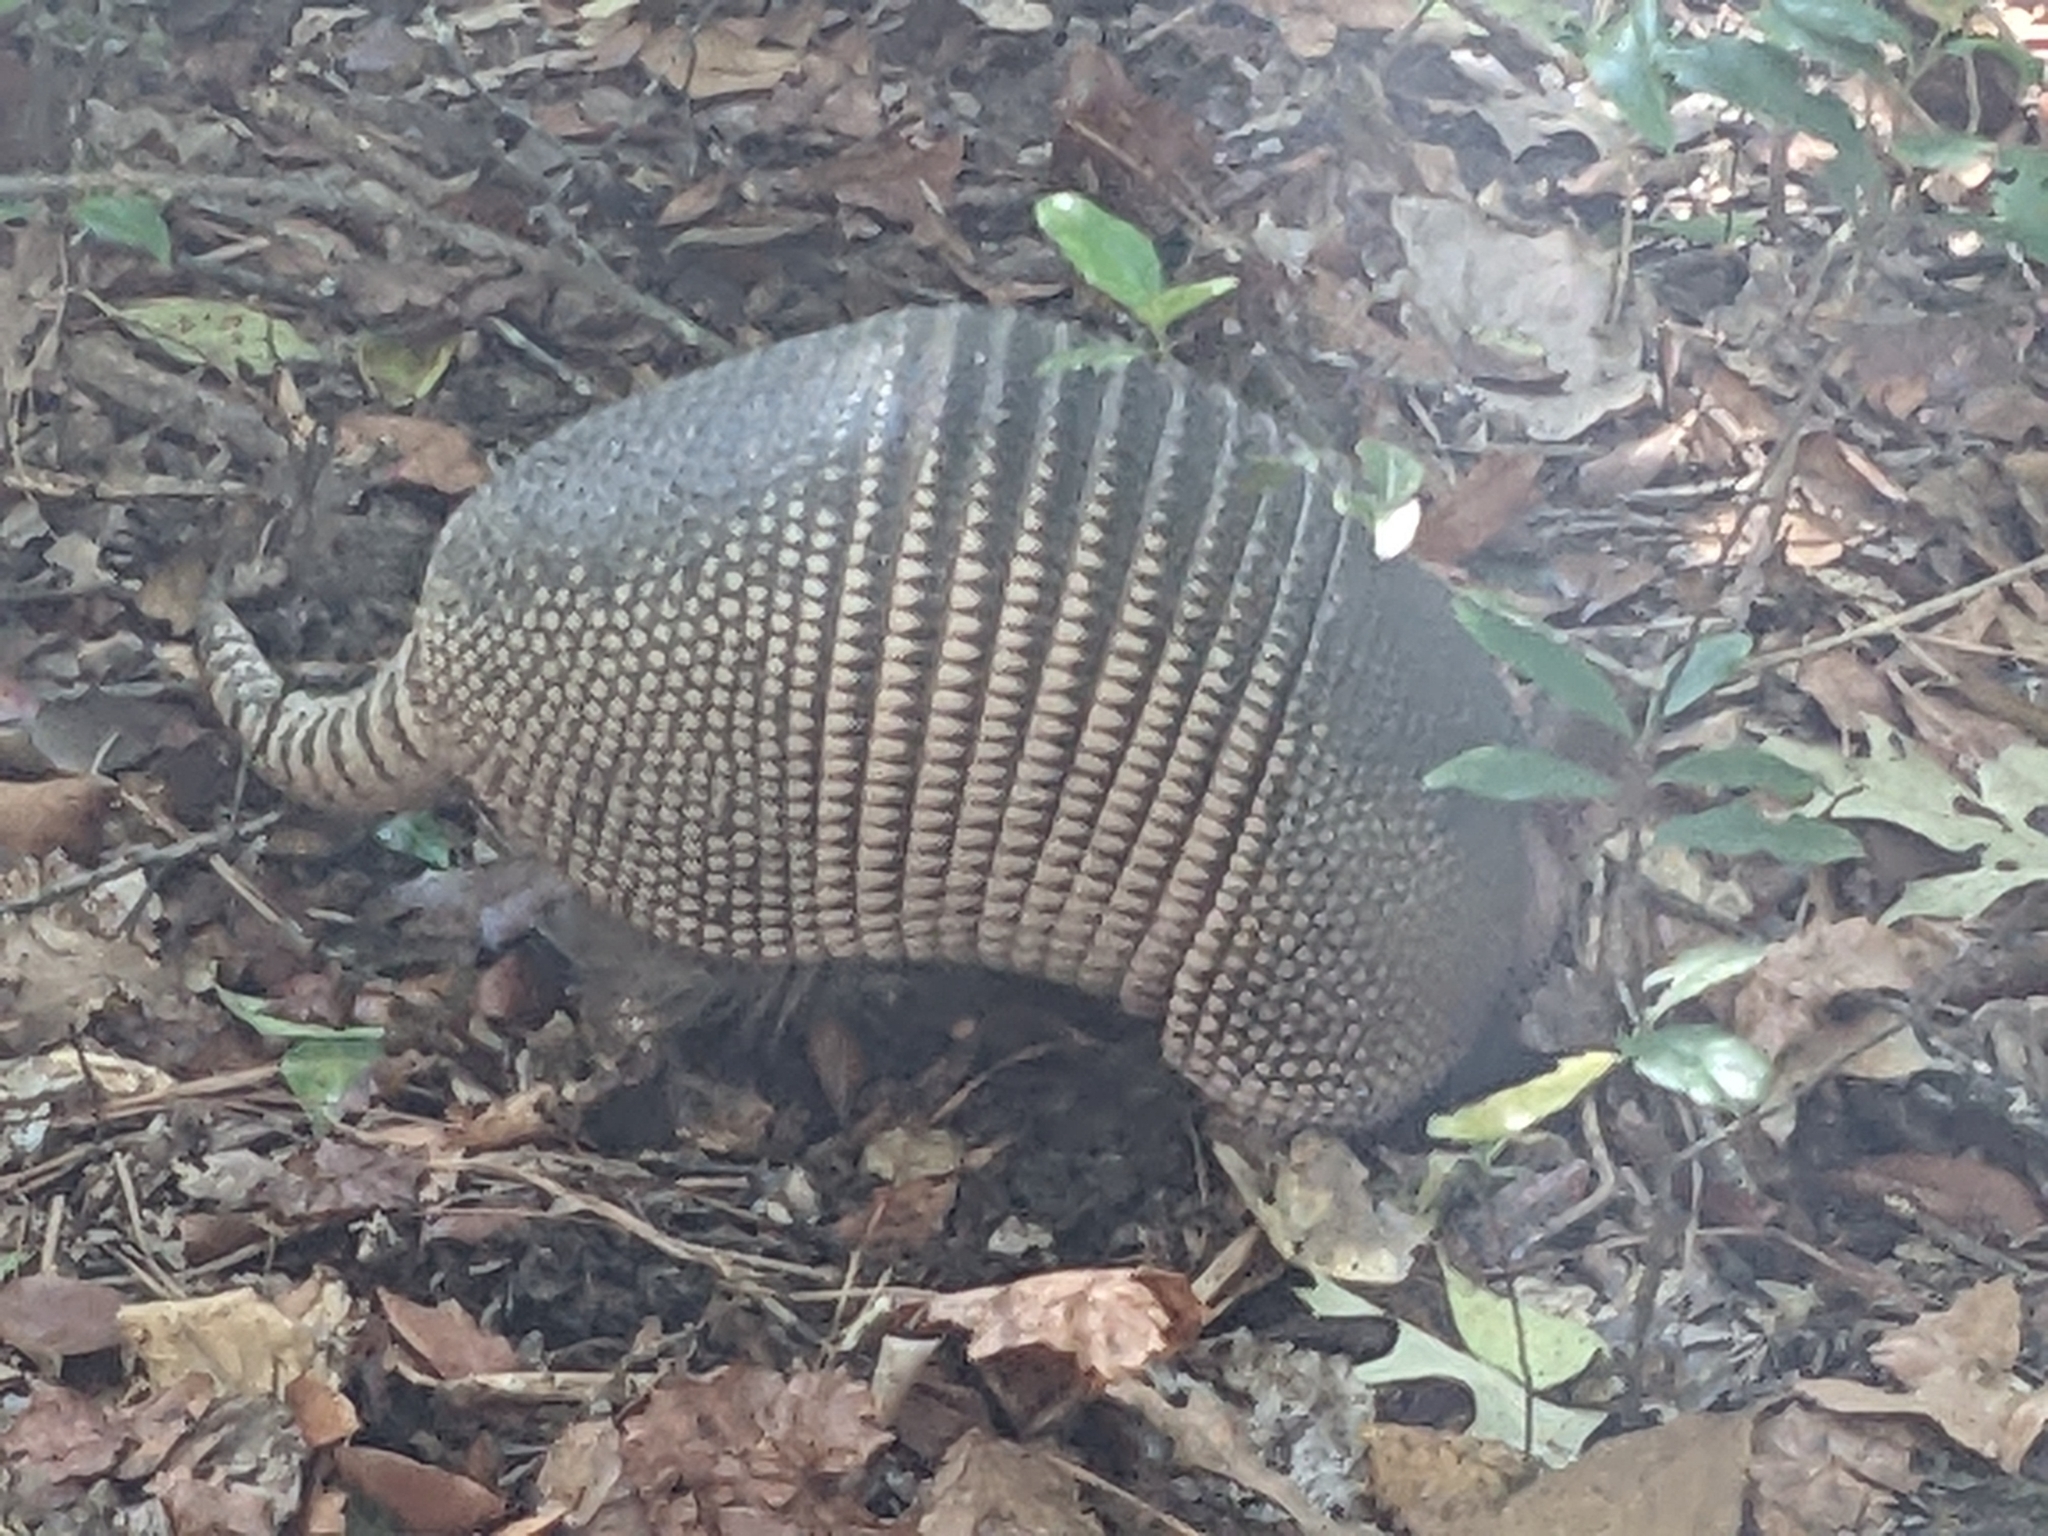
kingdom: Animalia
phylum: Chordata
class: Mammalia
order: Cingulata
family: Dasypodidae
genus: Dasypus
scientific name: Dasypus novemcinctus
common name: Nine-banded armadillo
